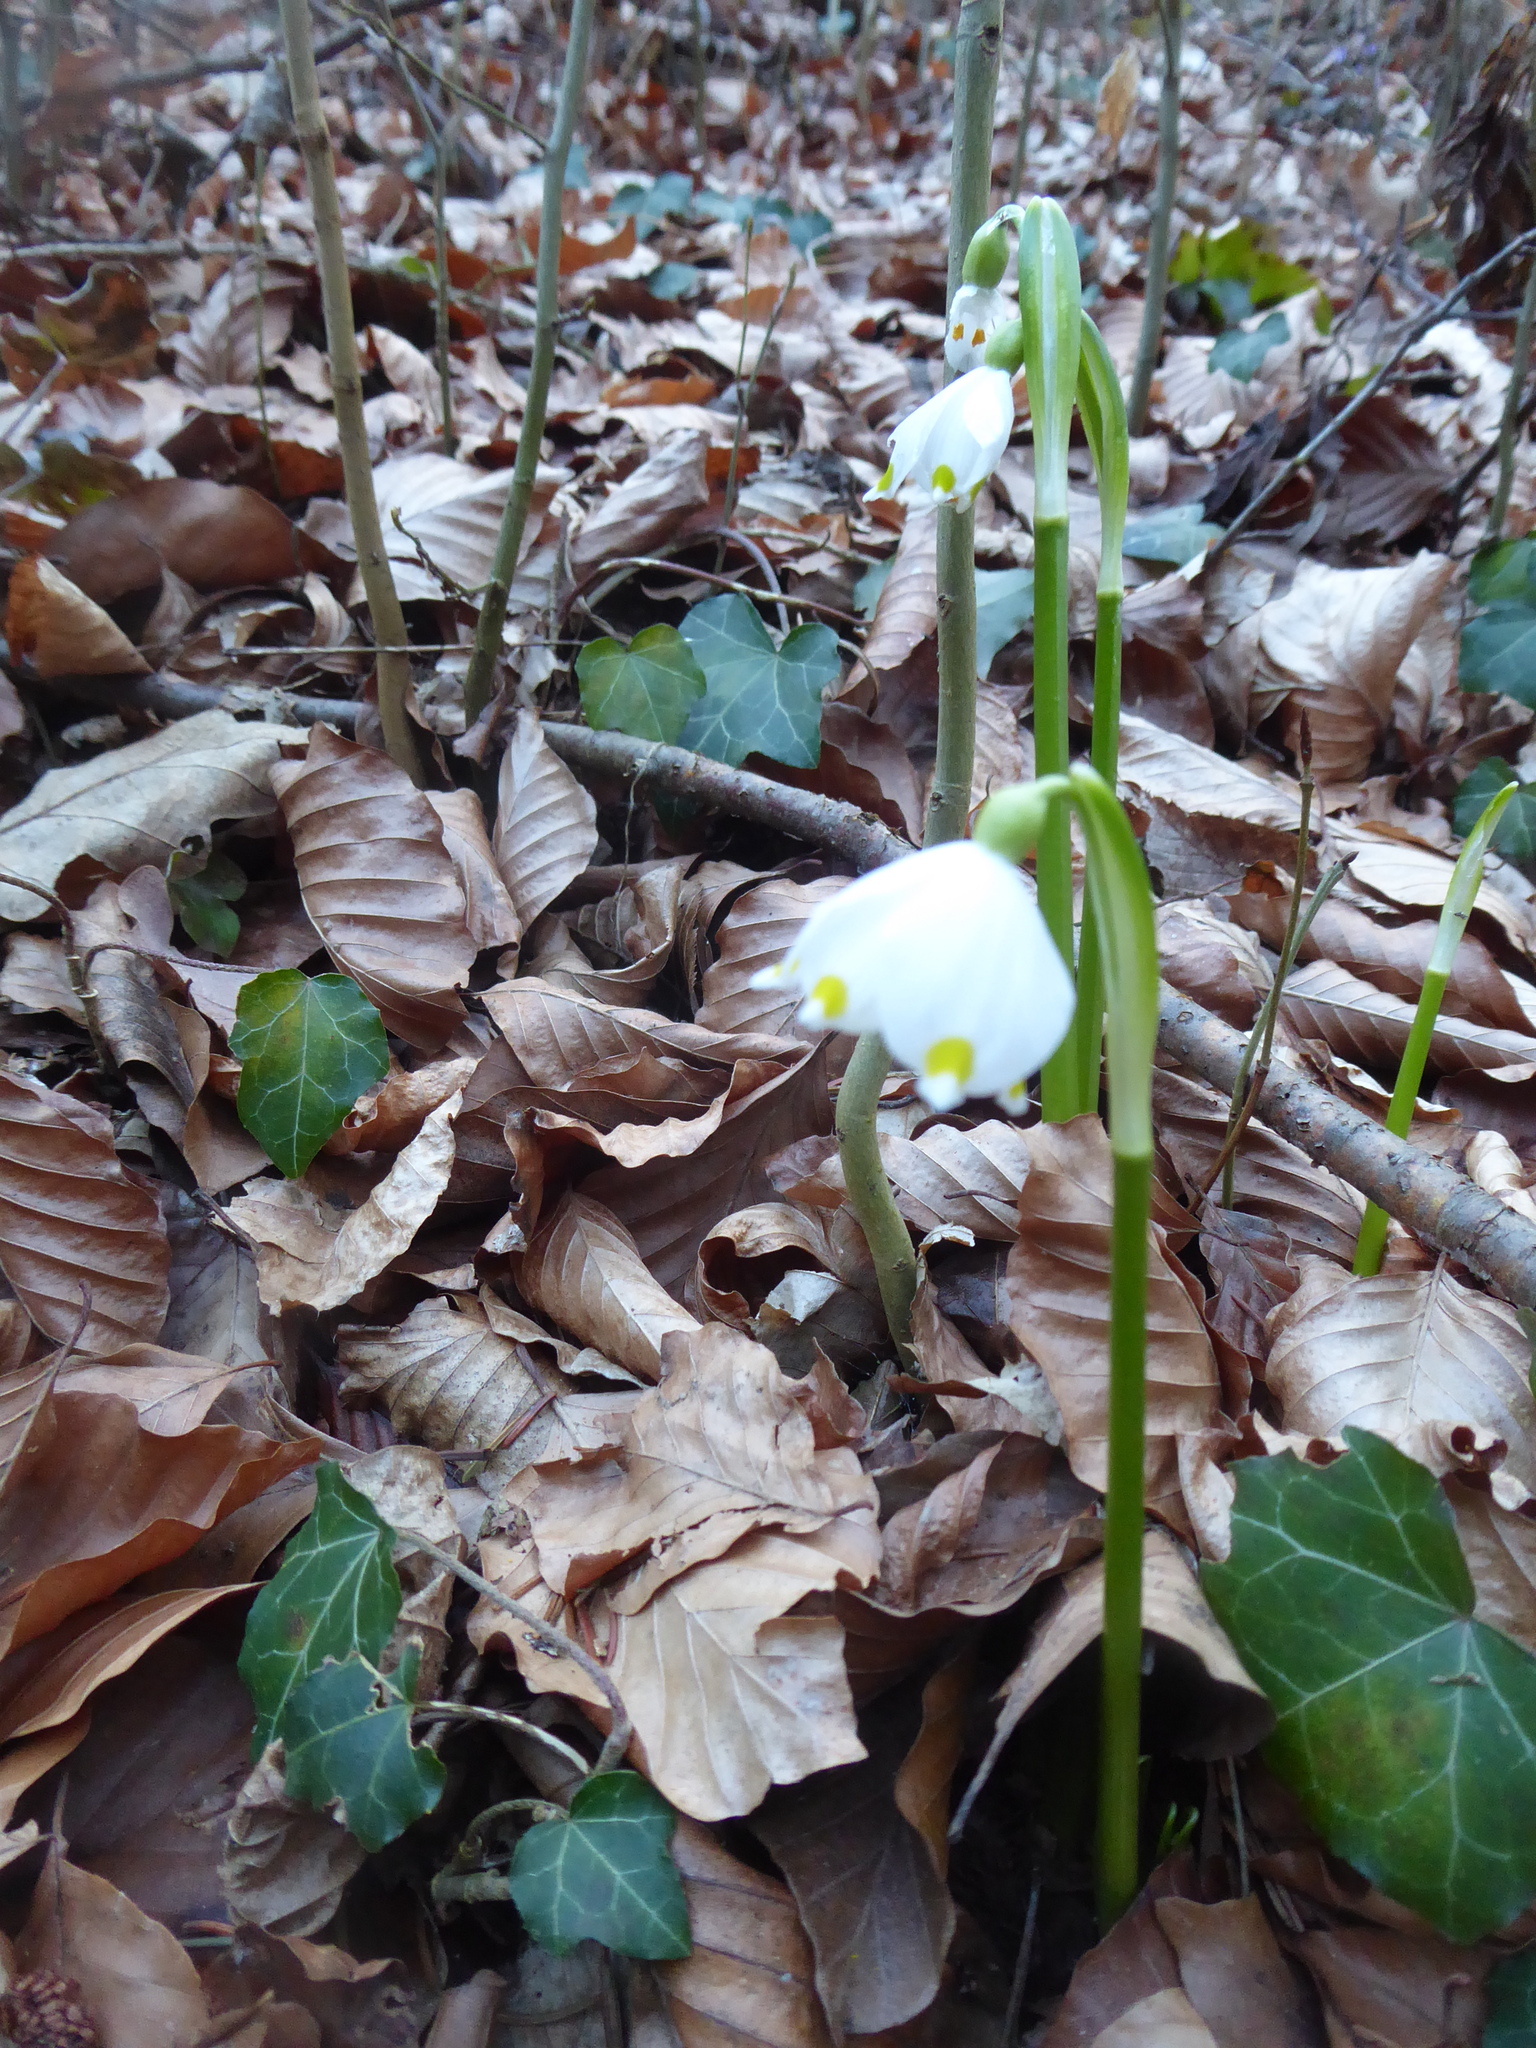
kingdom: Plantae
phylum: Tracheophyta
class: Liliopsida
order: Asparagales
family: Amaryllidaceae
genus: Leucojum
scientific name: Leucojum vernum
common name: Spring snowflake
